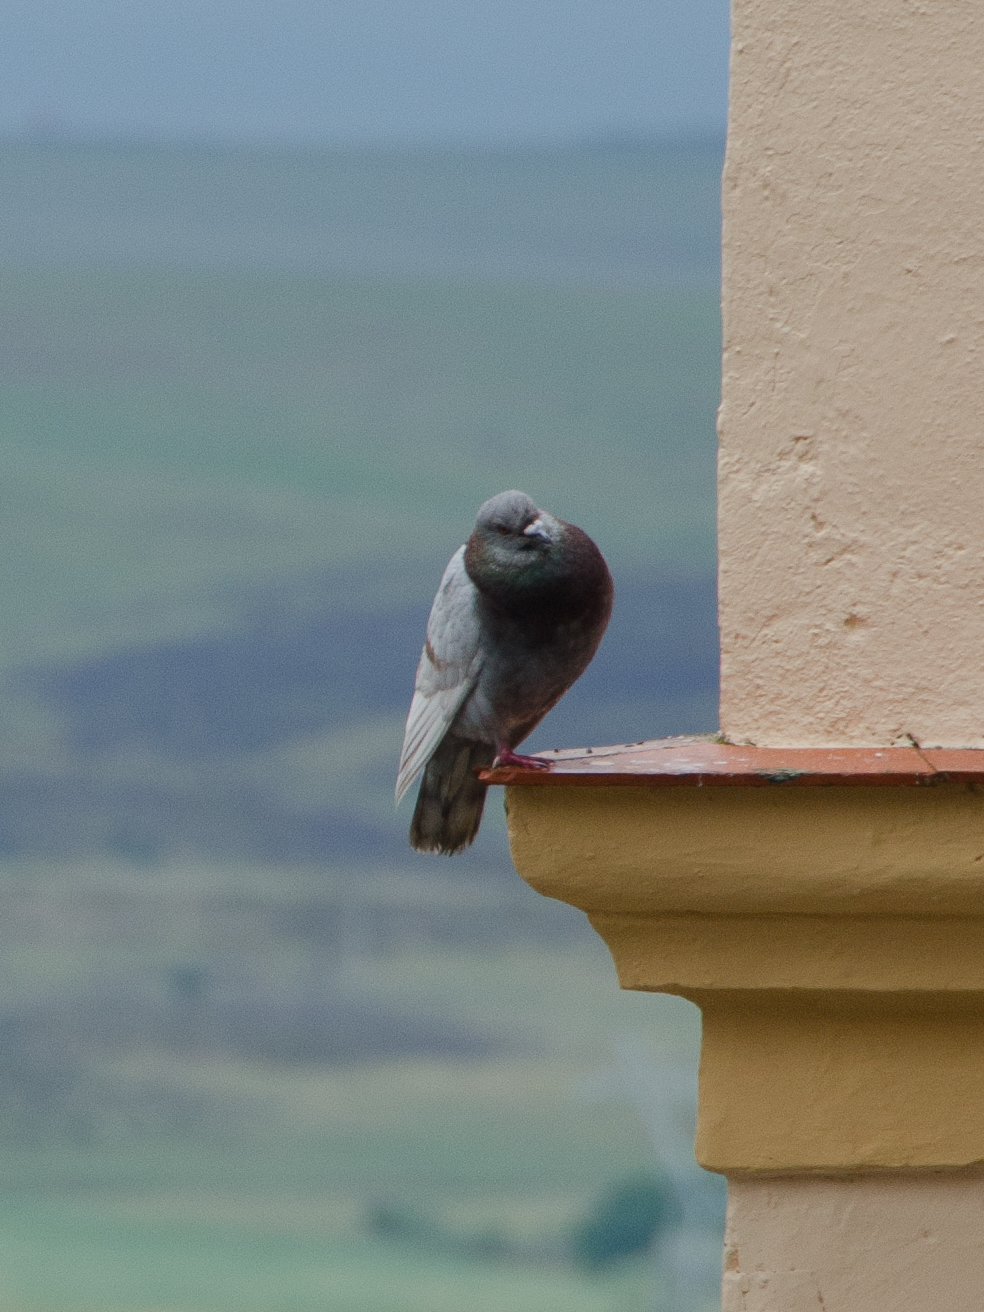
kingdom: Animalia
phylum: Chordata
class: Aves
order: Columbiformes
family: Columbidae
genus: Columba
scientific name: Columba livia
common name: Rock pigeon
